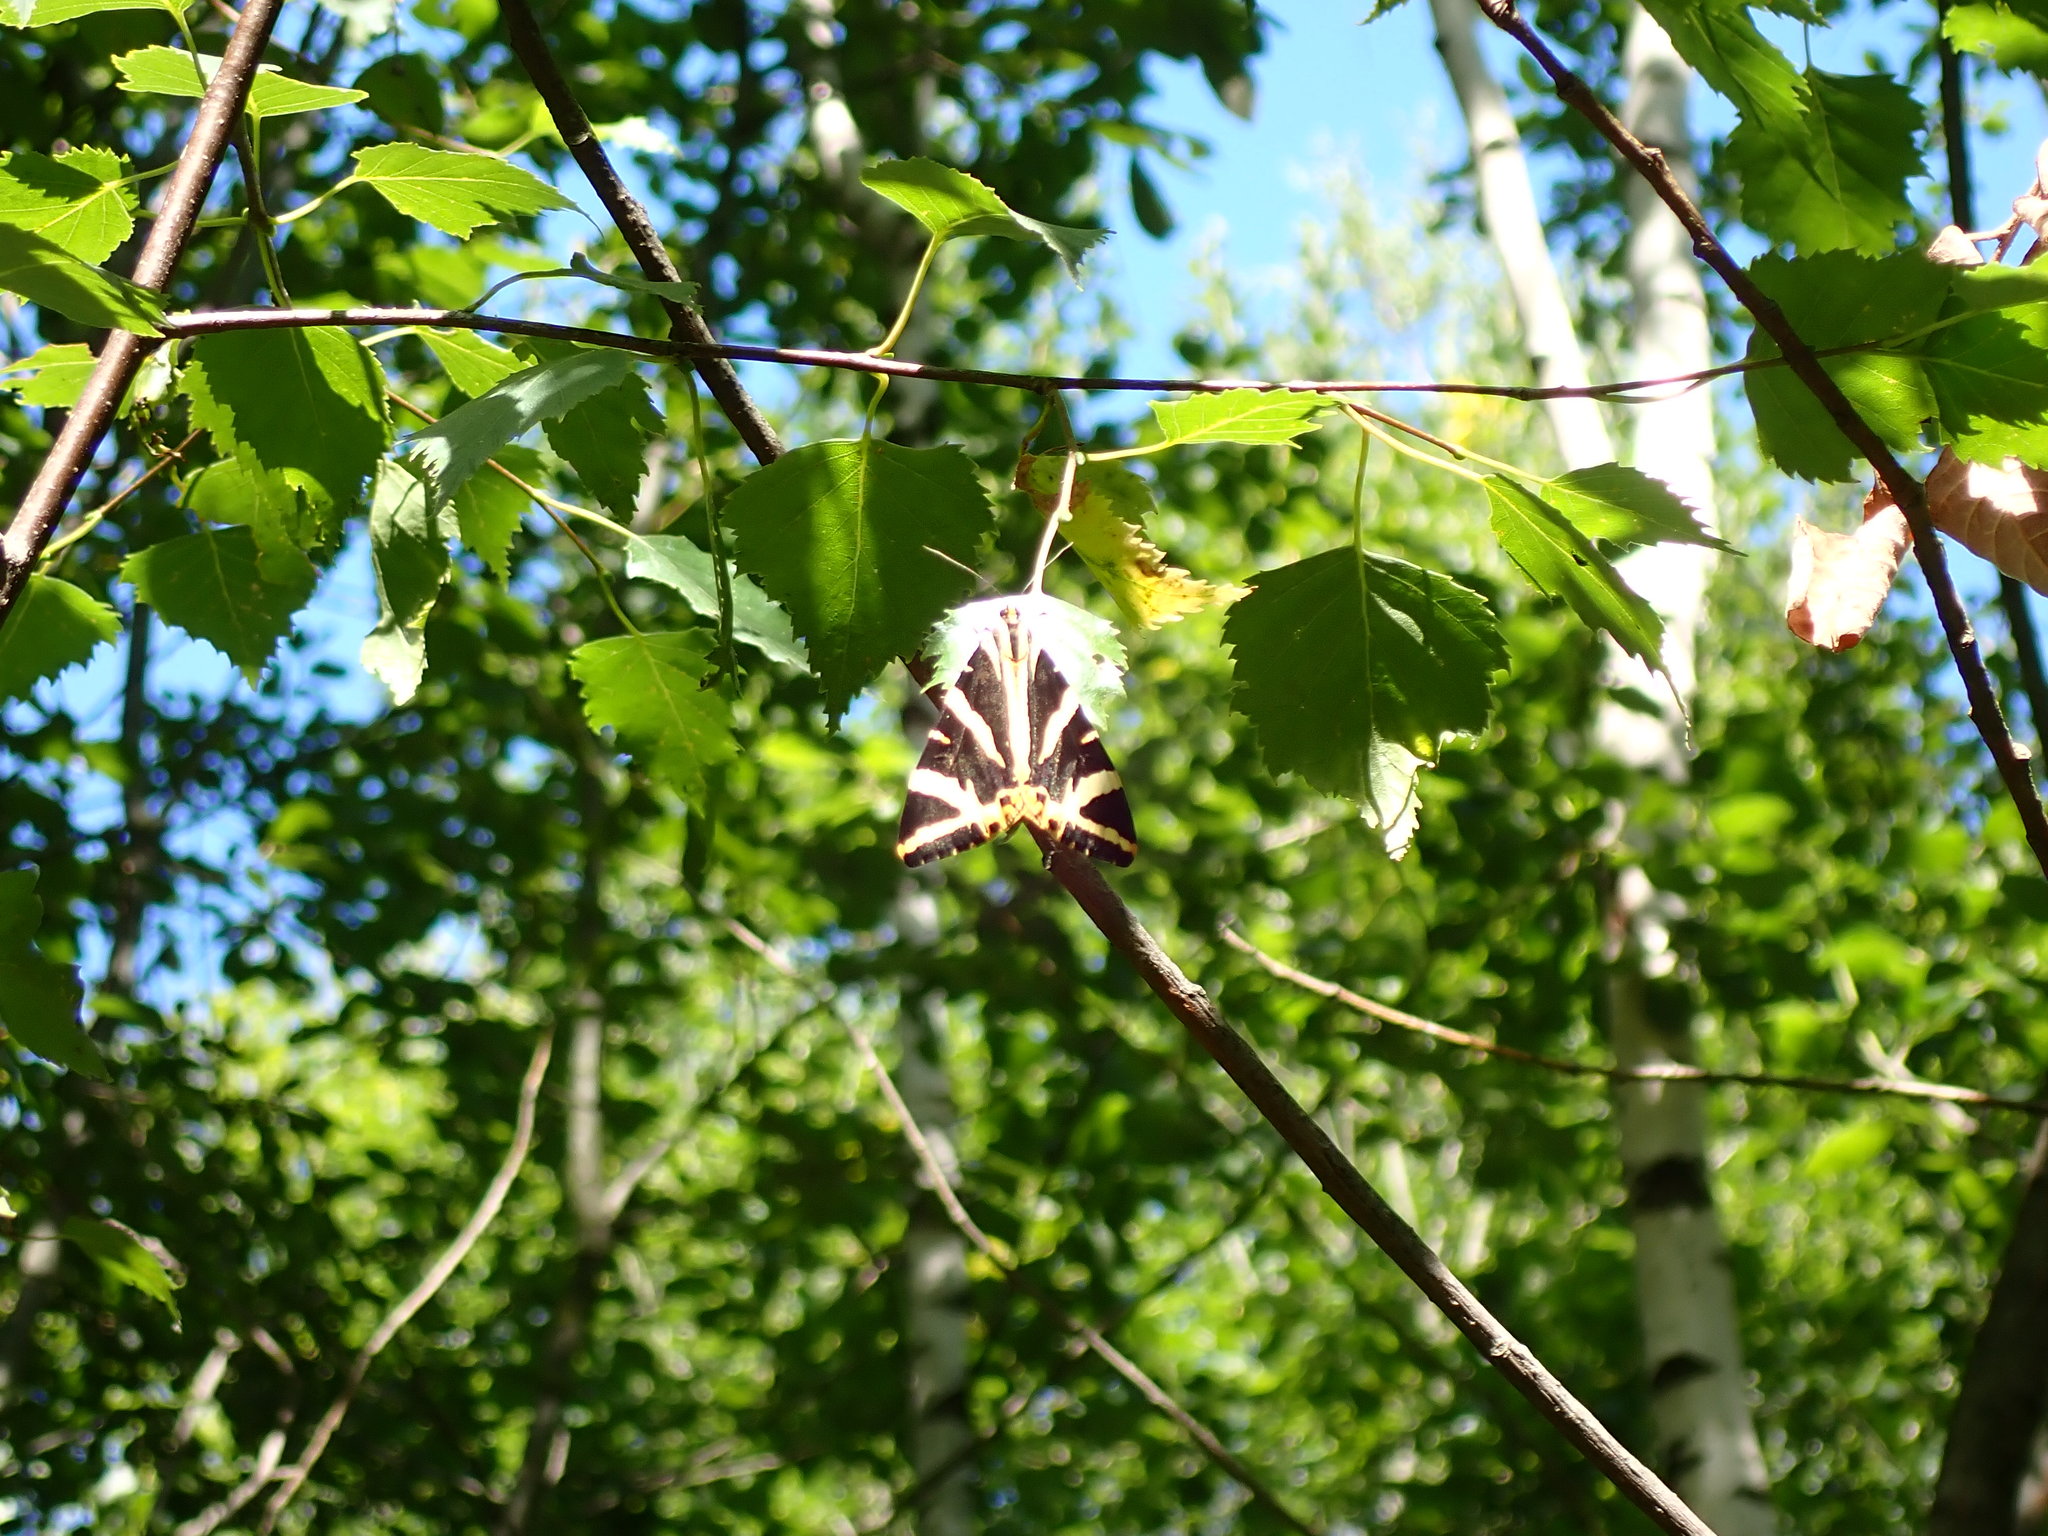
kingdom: Animalia
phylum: Arthropoda
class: Insecta
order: Lepidoptera
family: Erebidae
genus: Euplagia
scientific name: Euplagia quadripunctaria
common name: Jersey tiger
